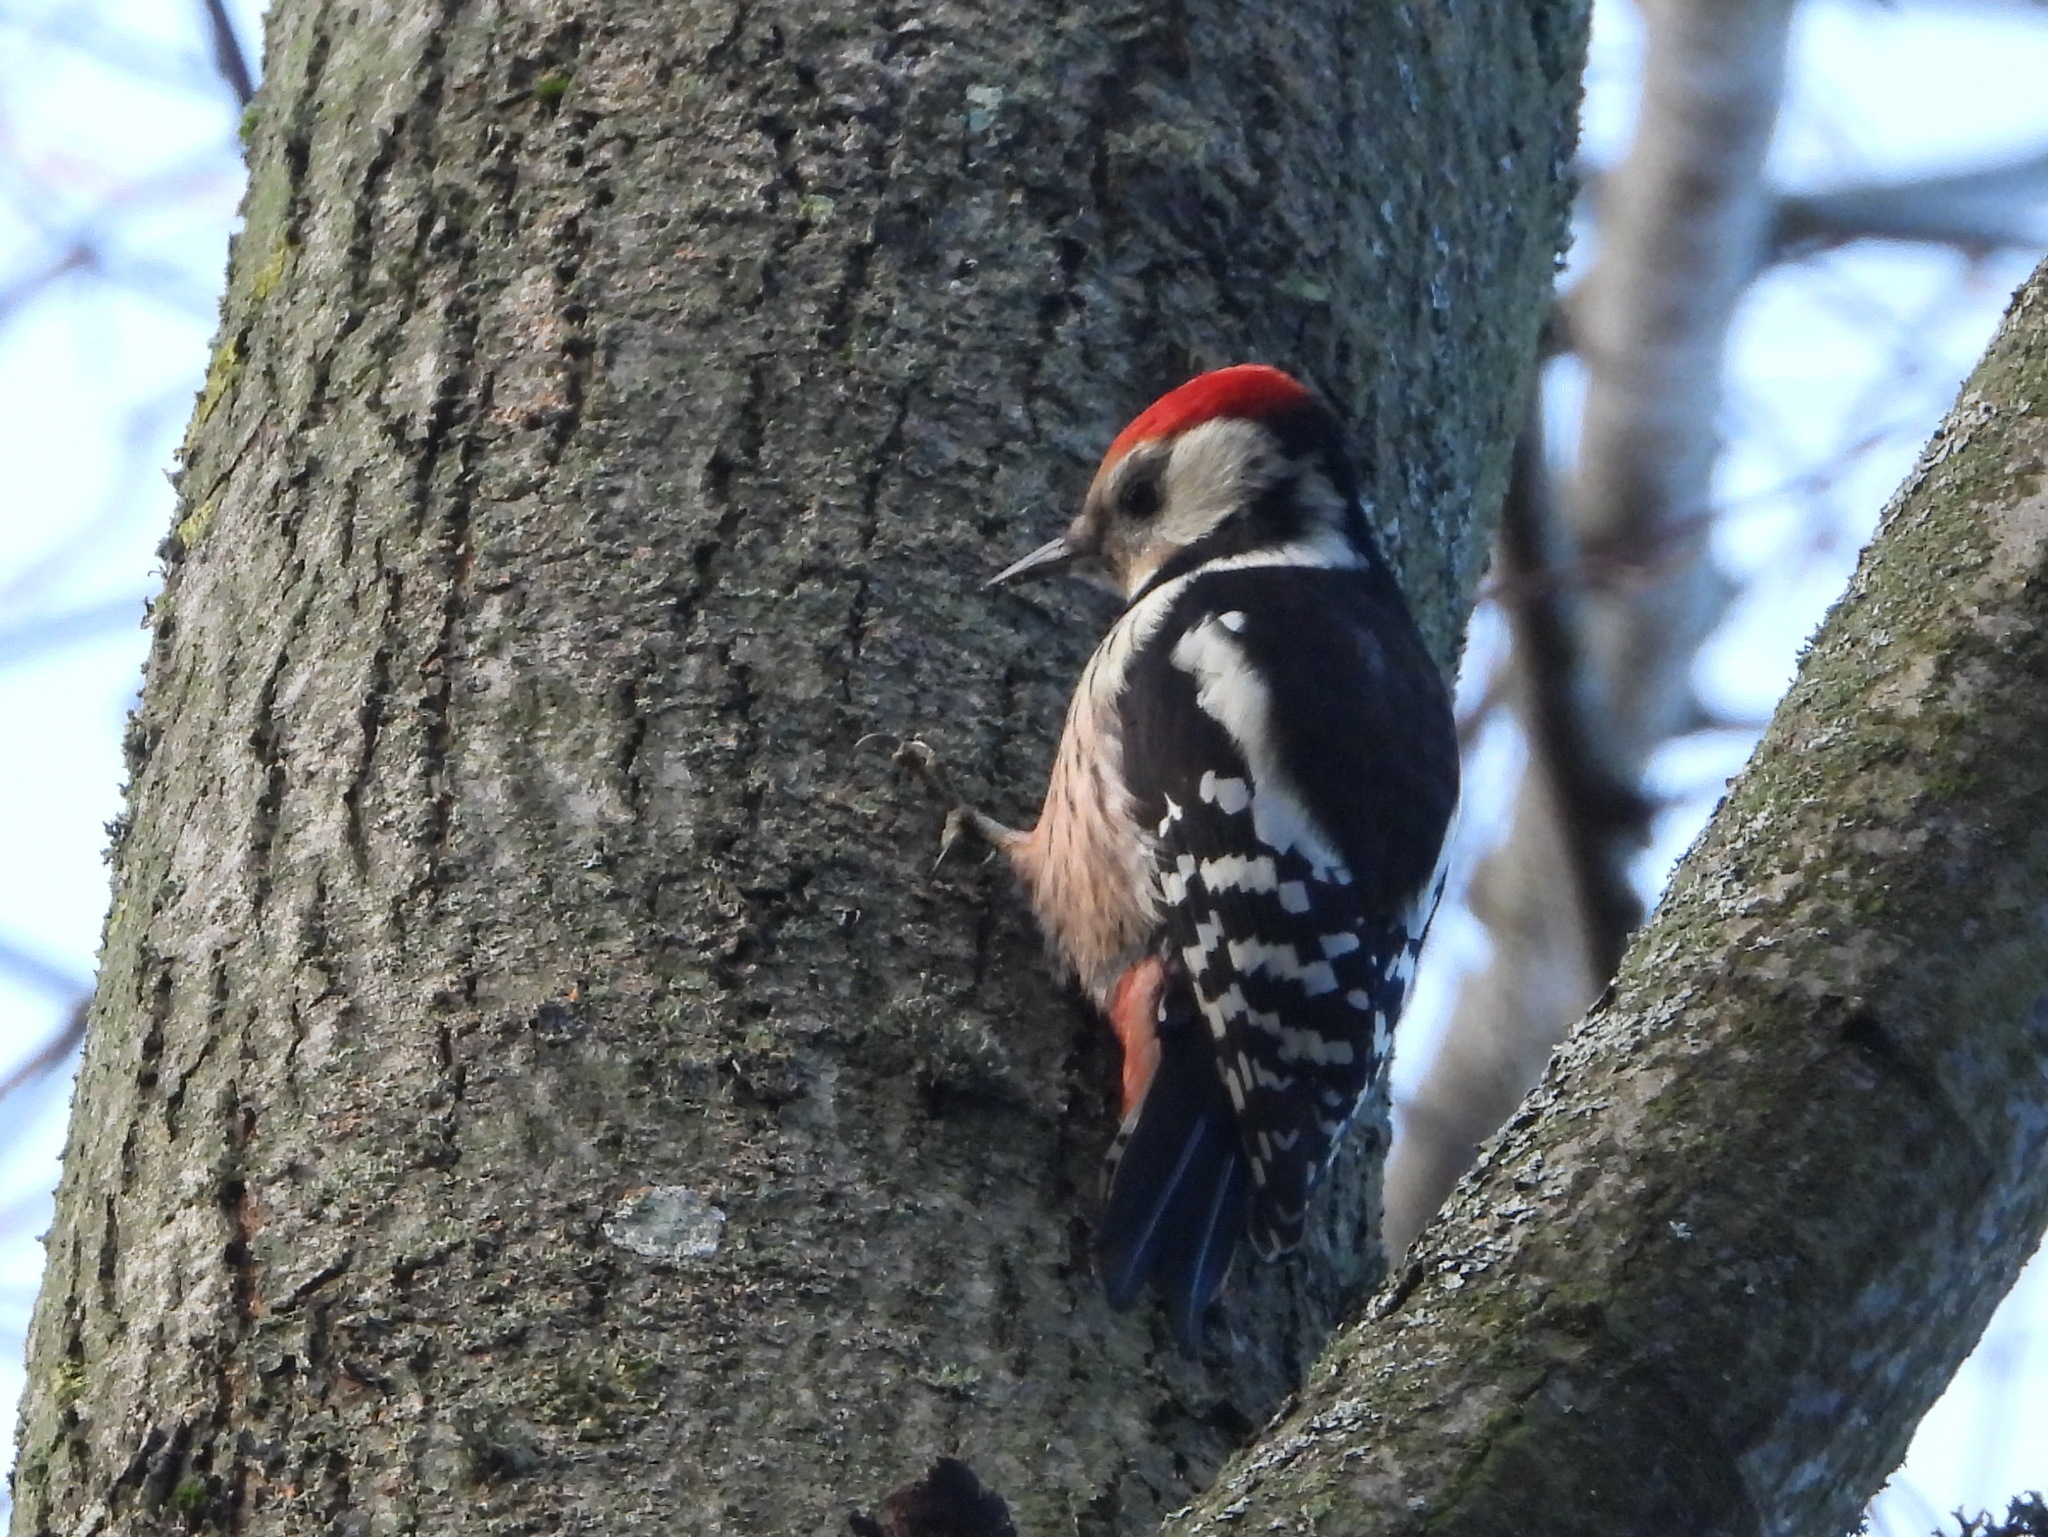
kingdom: Animalia
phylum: Chordata
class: Aves
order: Piciformes
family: Picidae
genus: Dendrocoptes
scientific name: Dendrocoptes medius
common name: Middle spotted woodpecker
